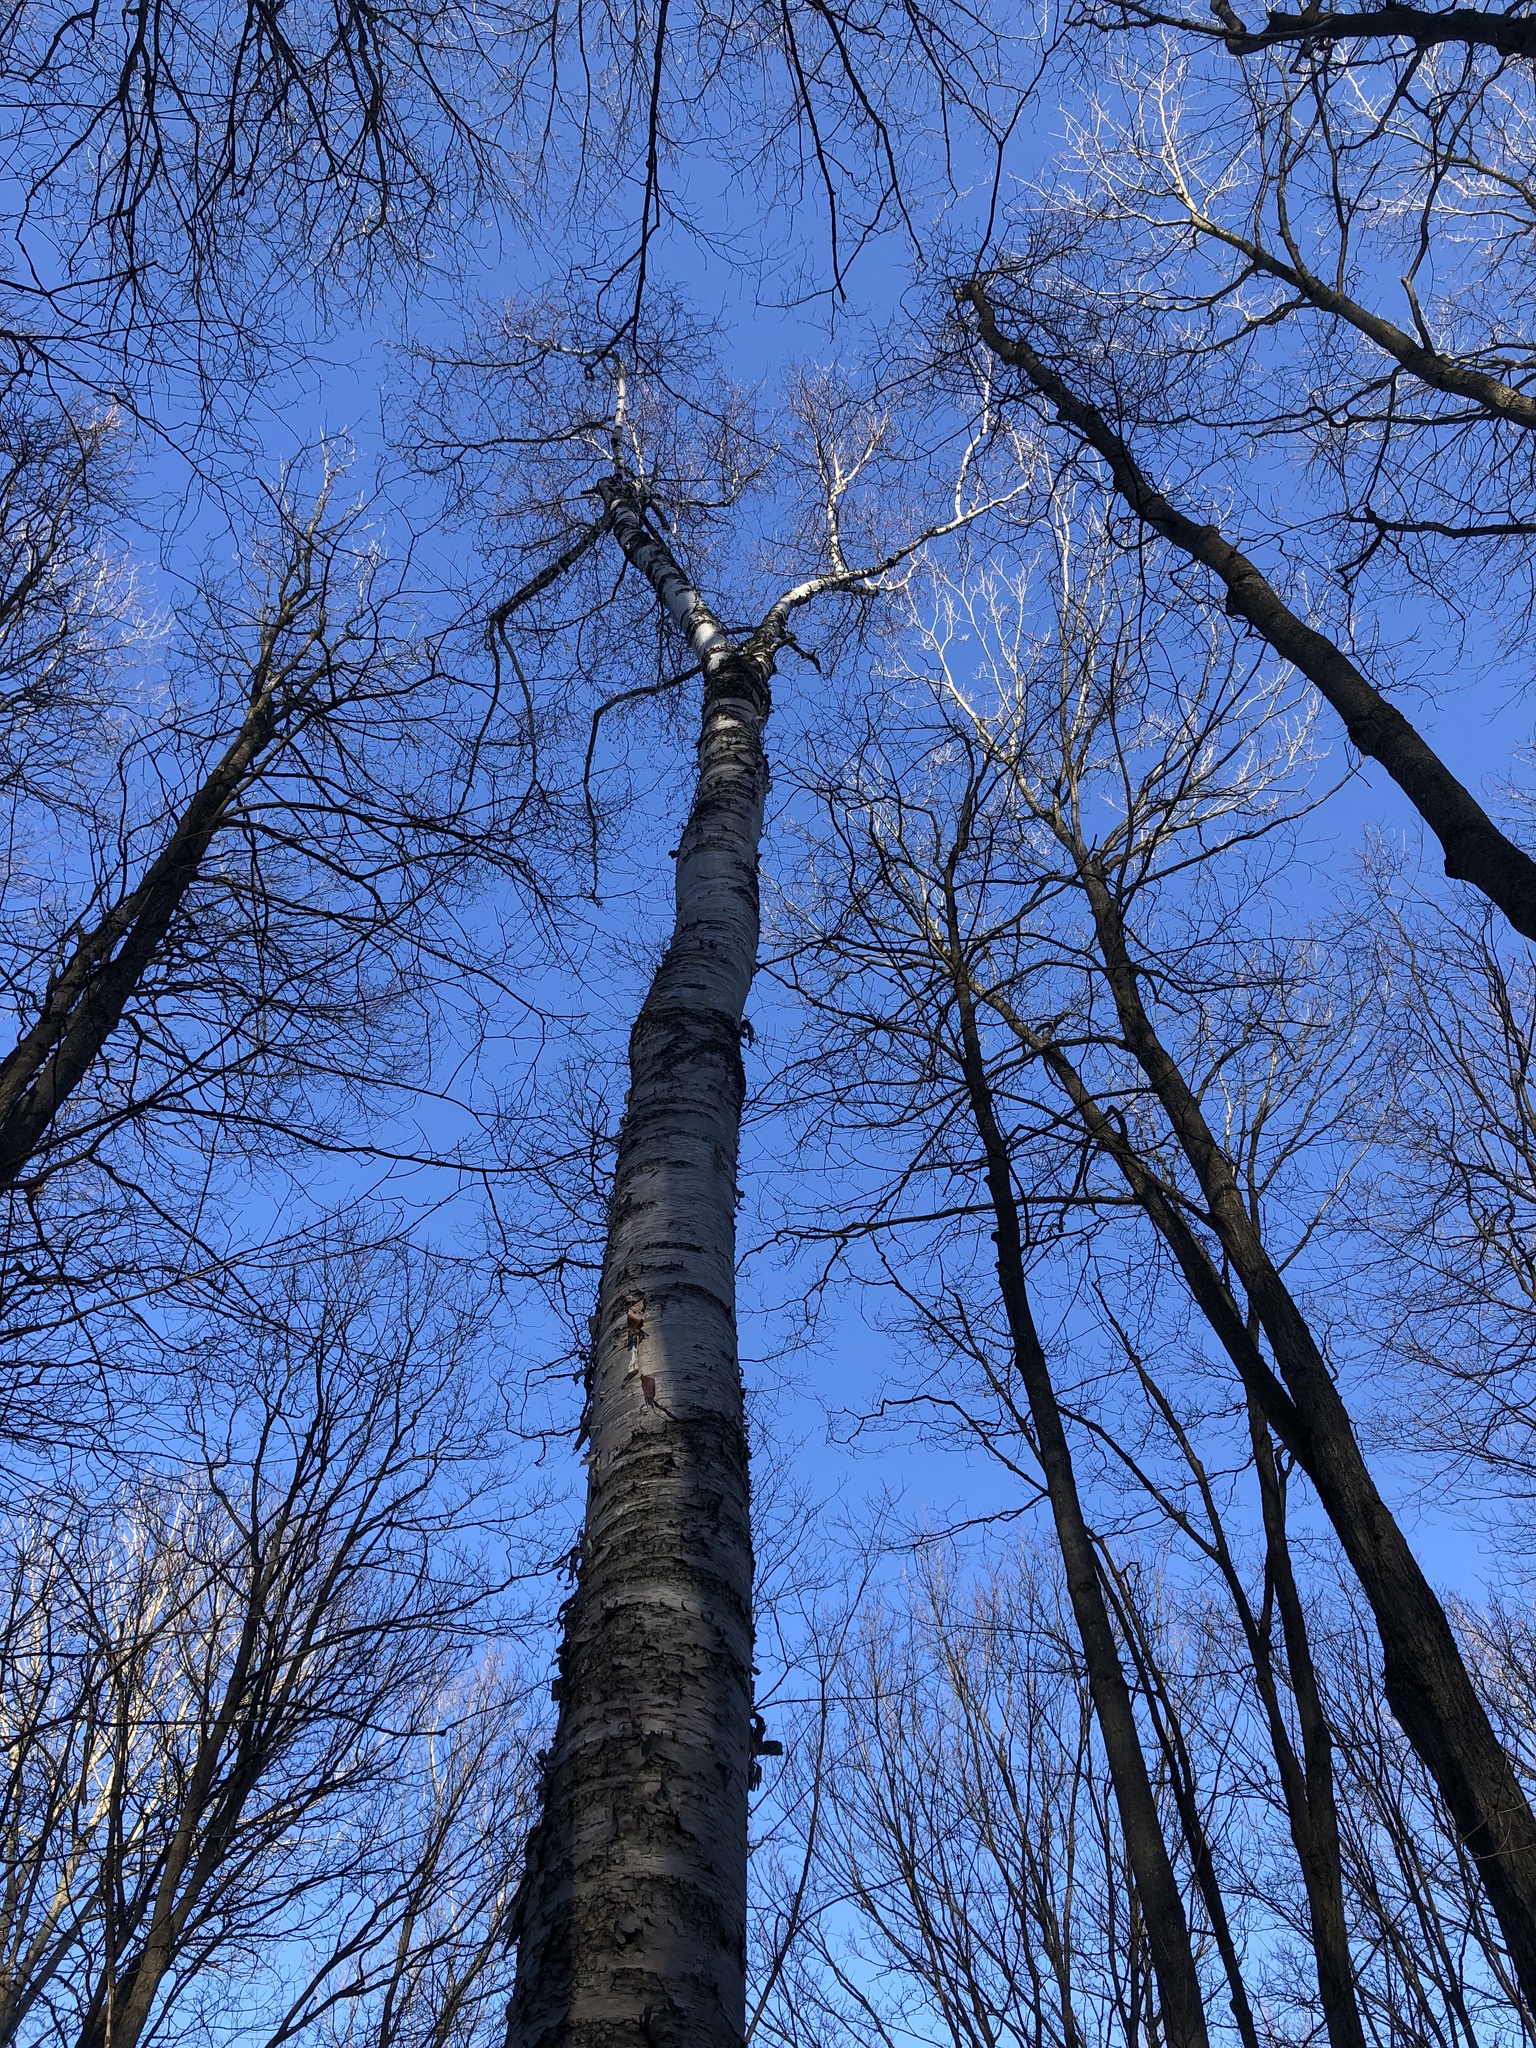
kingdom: Plantae
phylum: Tracheophyta
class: Magnoliopsida
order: Fagales
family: Betulaceae
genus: Betula
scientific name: Betula papyrifera
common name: Paper birch
